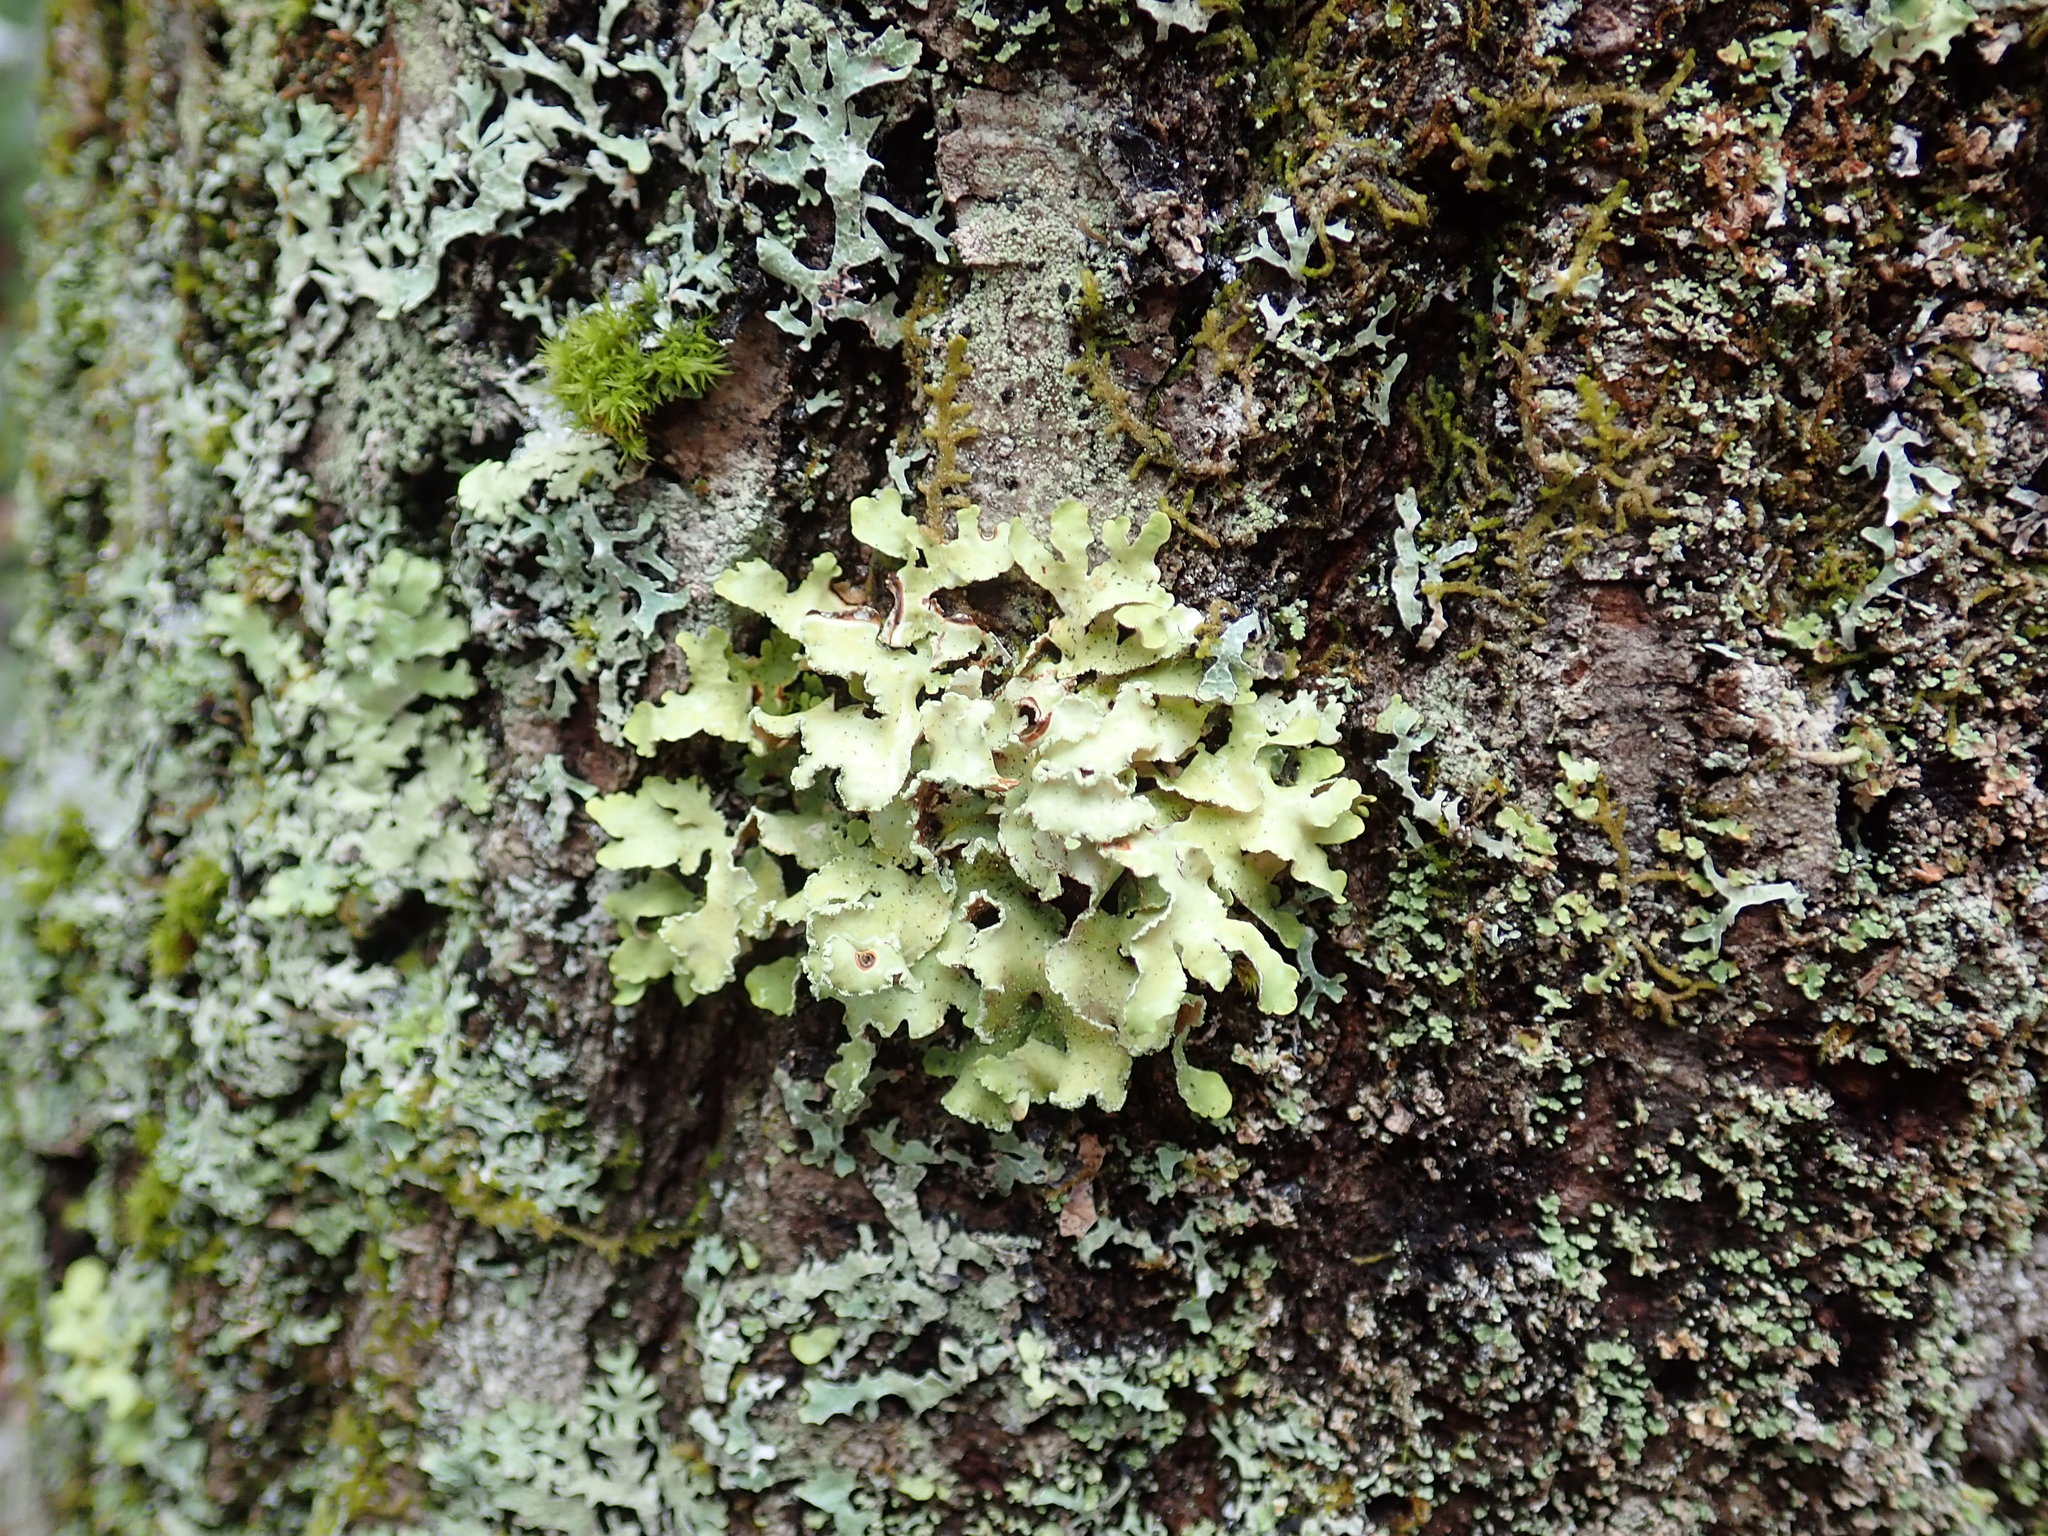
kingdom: Fungi
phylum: Ascomycota
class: Lecanoromycetes
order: Lecanorales
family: Parmeliaceae
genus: Usnocetraria
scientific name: Usnocetraria oakesiana
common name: Yellow ribbon lichen
